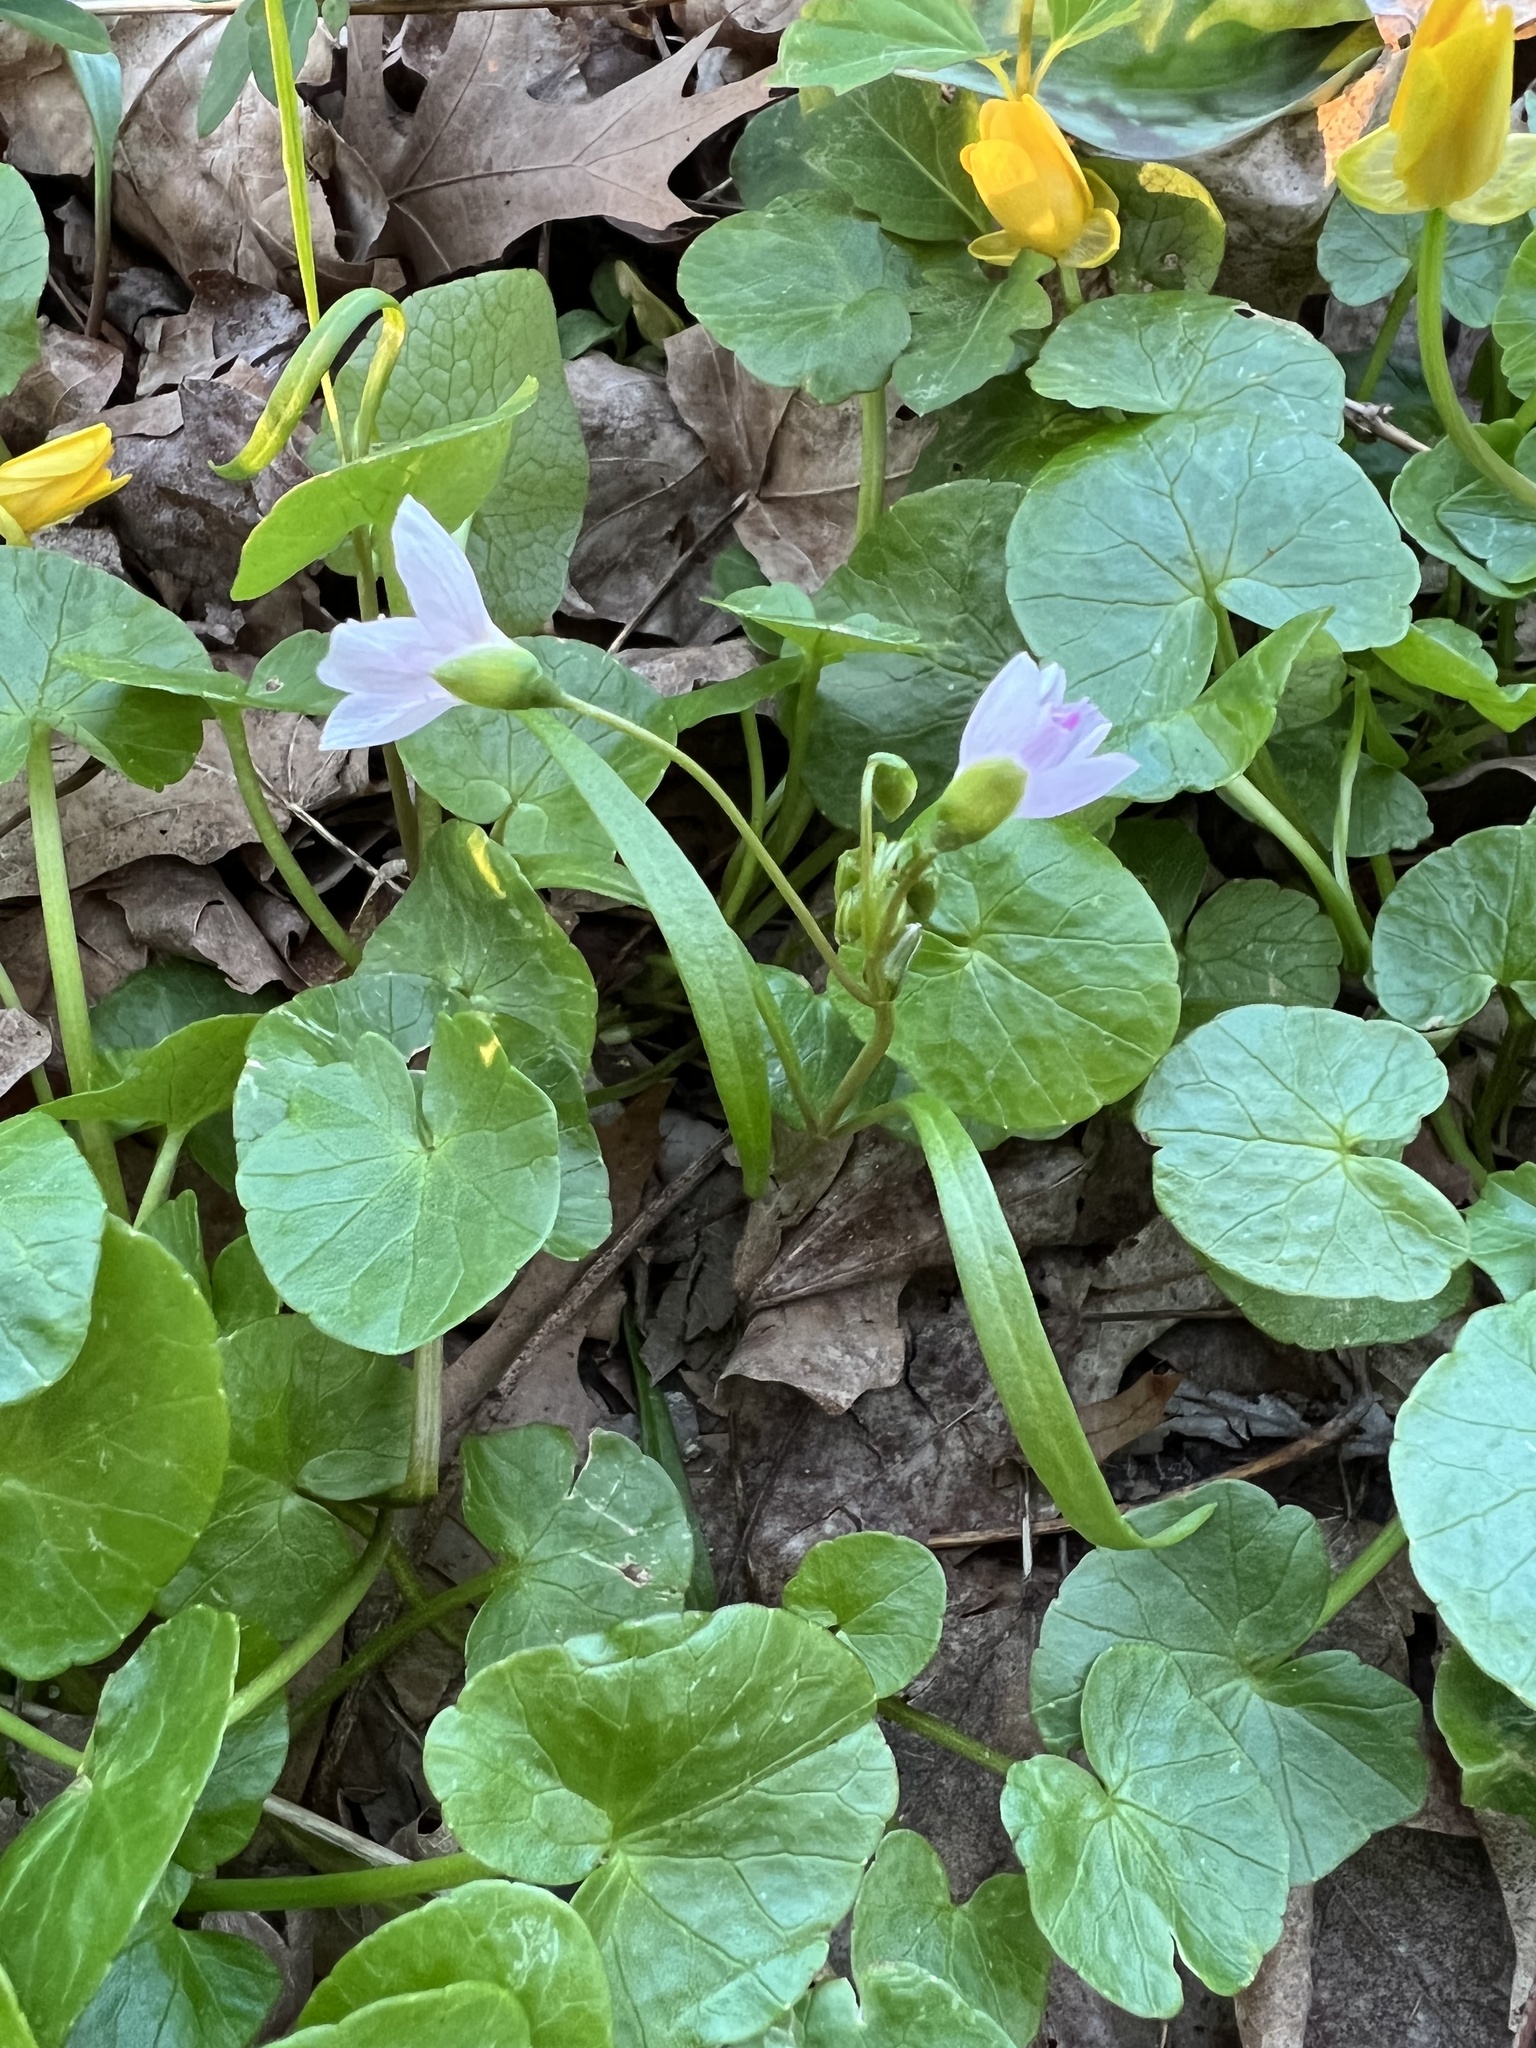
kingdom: Plantae
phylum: Tracheophyta
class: Magnoliopsida
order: Caryophyllales
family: Montiaceae
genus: Claytonia
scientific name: Claytonia virginica
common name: Virginia springbeauty
